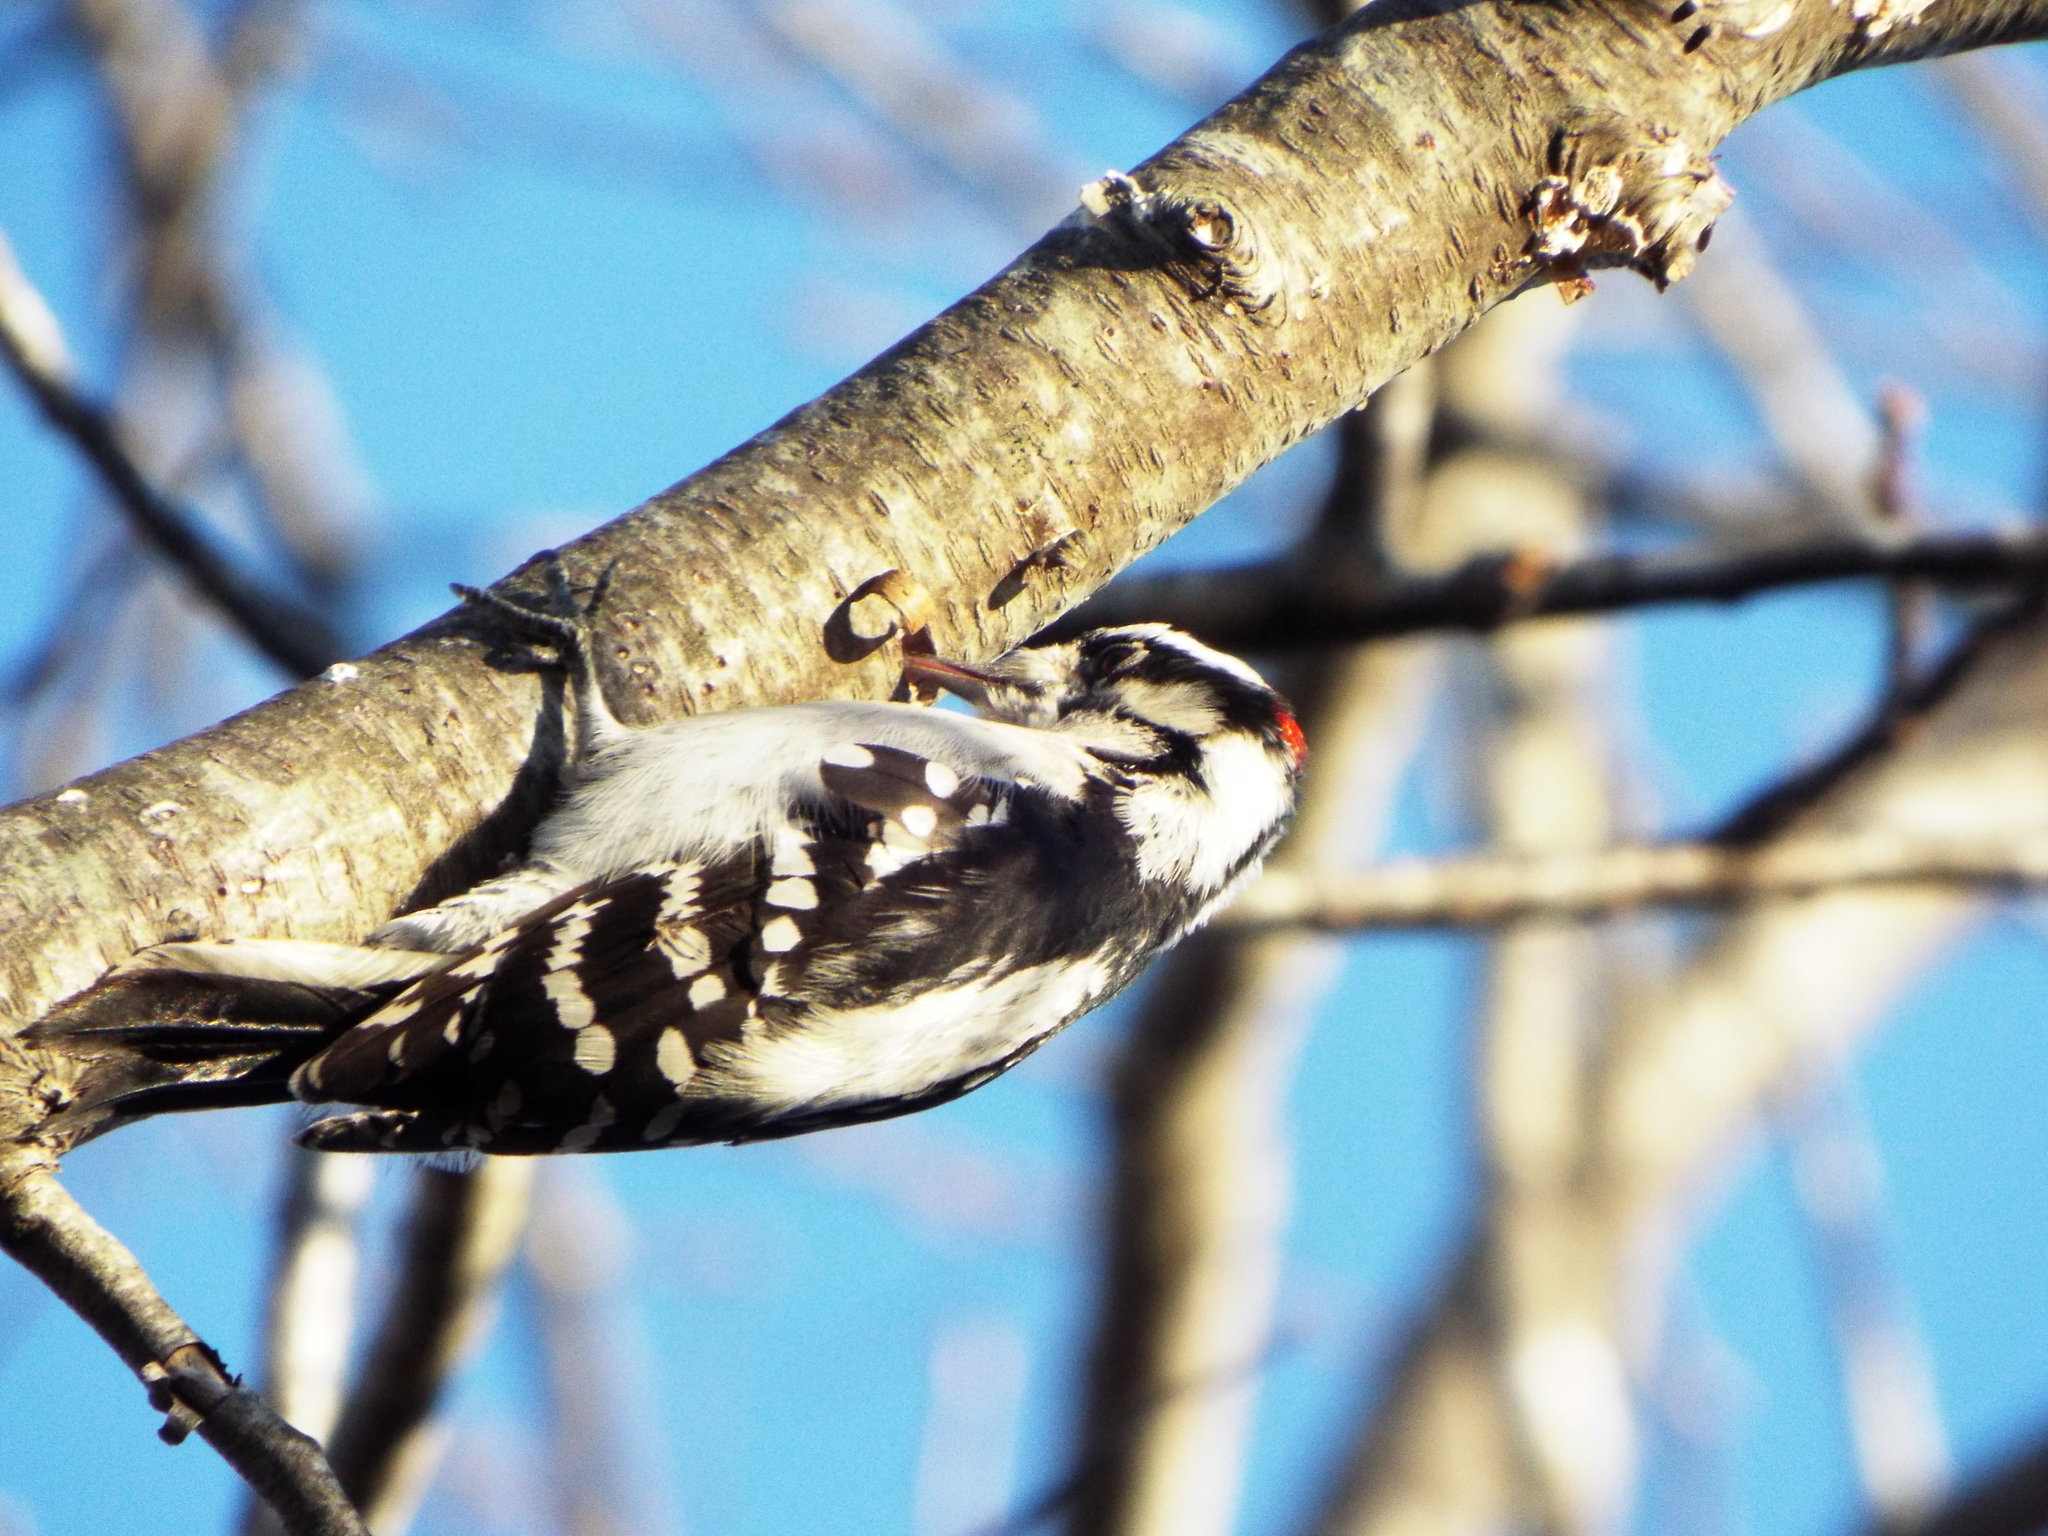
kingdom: Animalia
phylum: Chordata
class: Aves
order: Piciformes
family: Picidae
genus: Dryobates
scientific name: Dryobates pubescens
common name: Downy woodpecker
